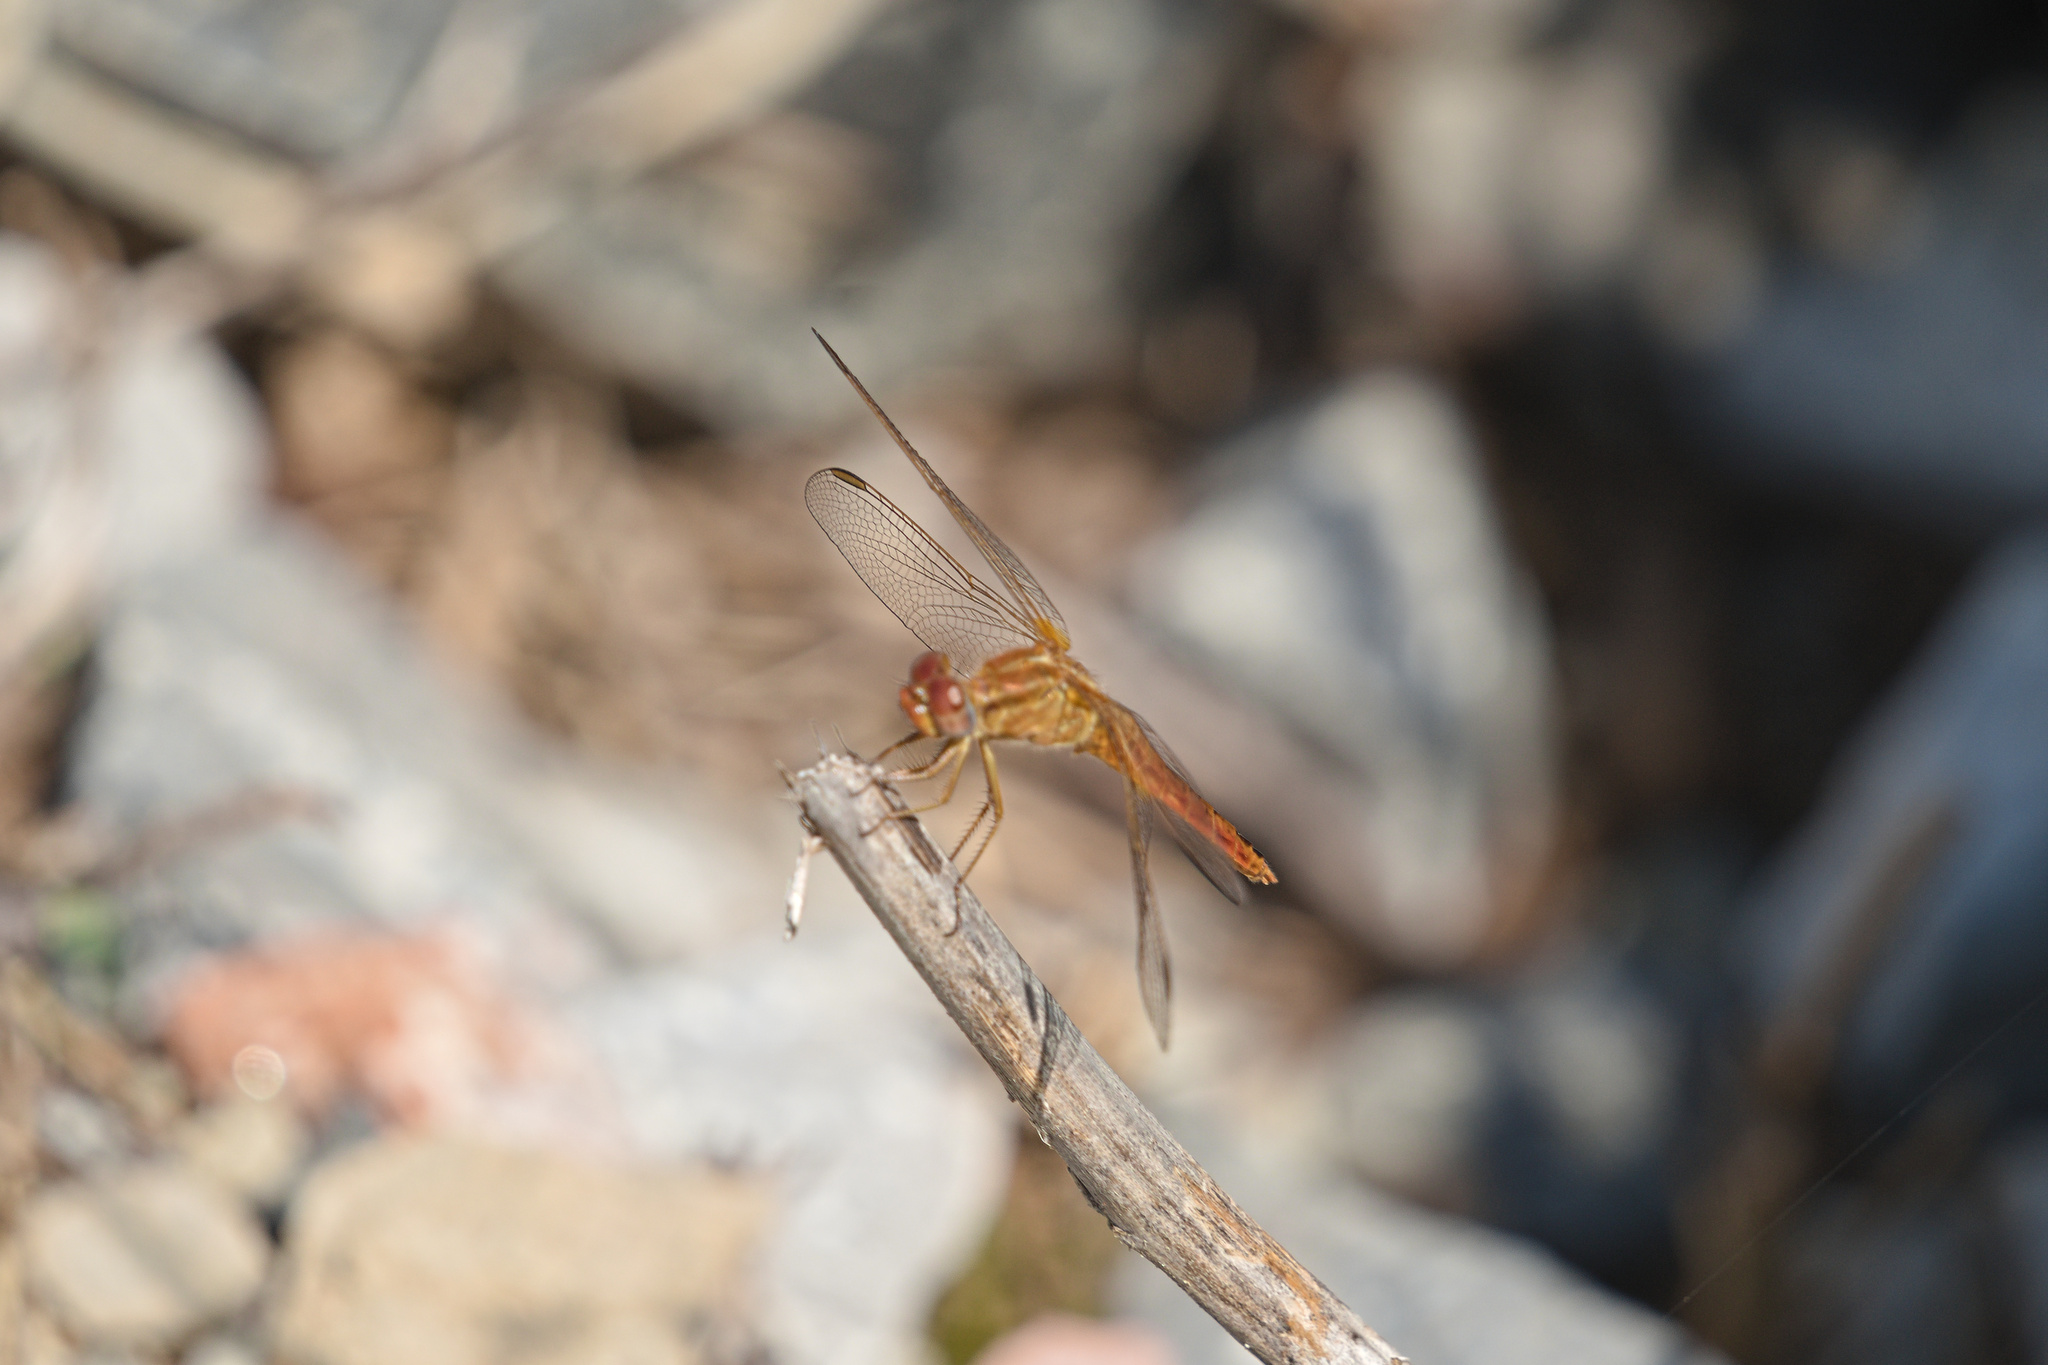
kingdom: Animalia
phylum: Arthropoda
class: Insecta
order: Odonata
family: Libellulidae
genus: Crocothemis
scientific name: Crocothemis erythraea
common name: Scarlet dragonfly
